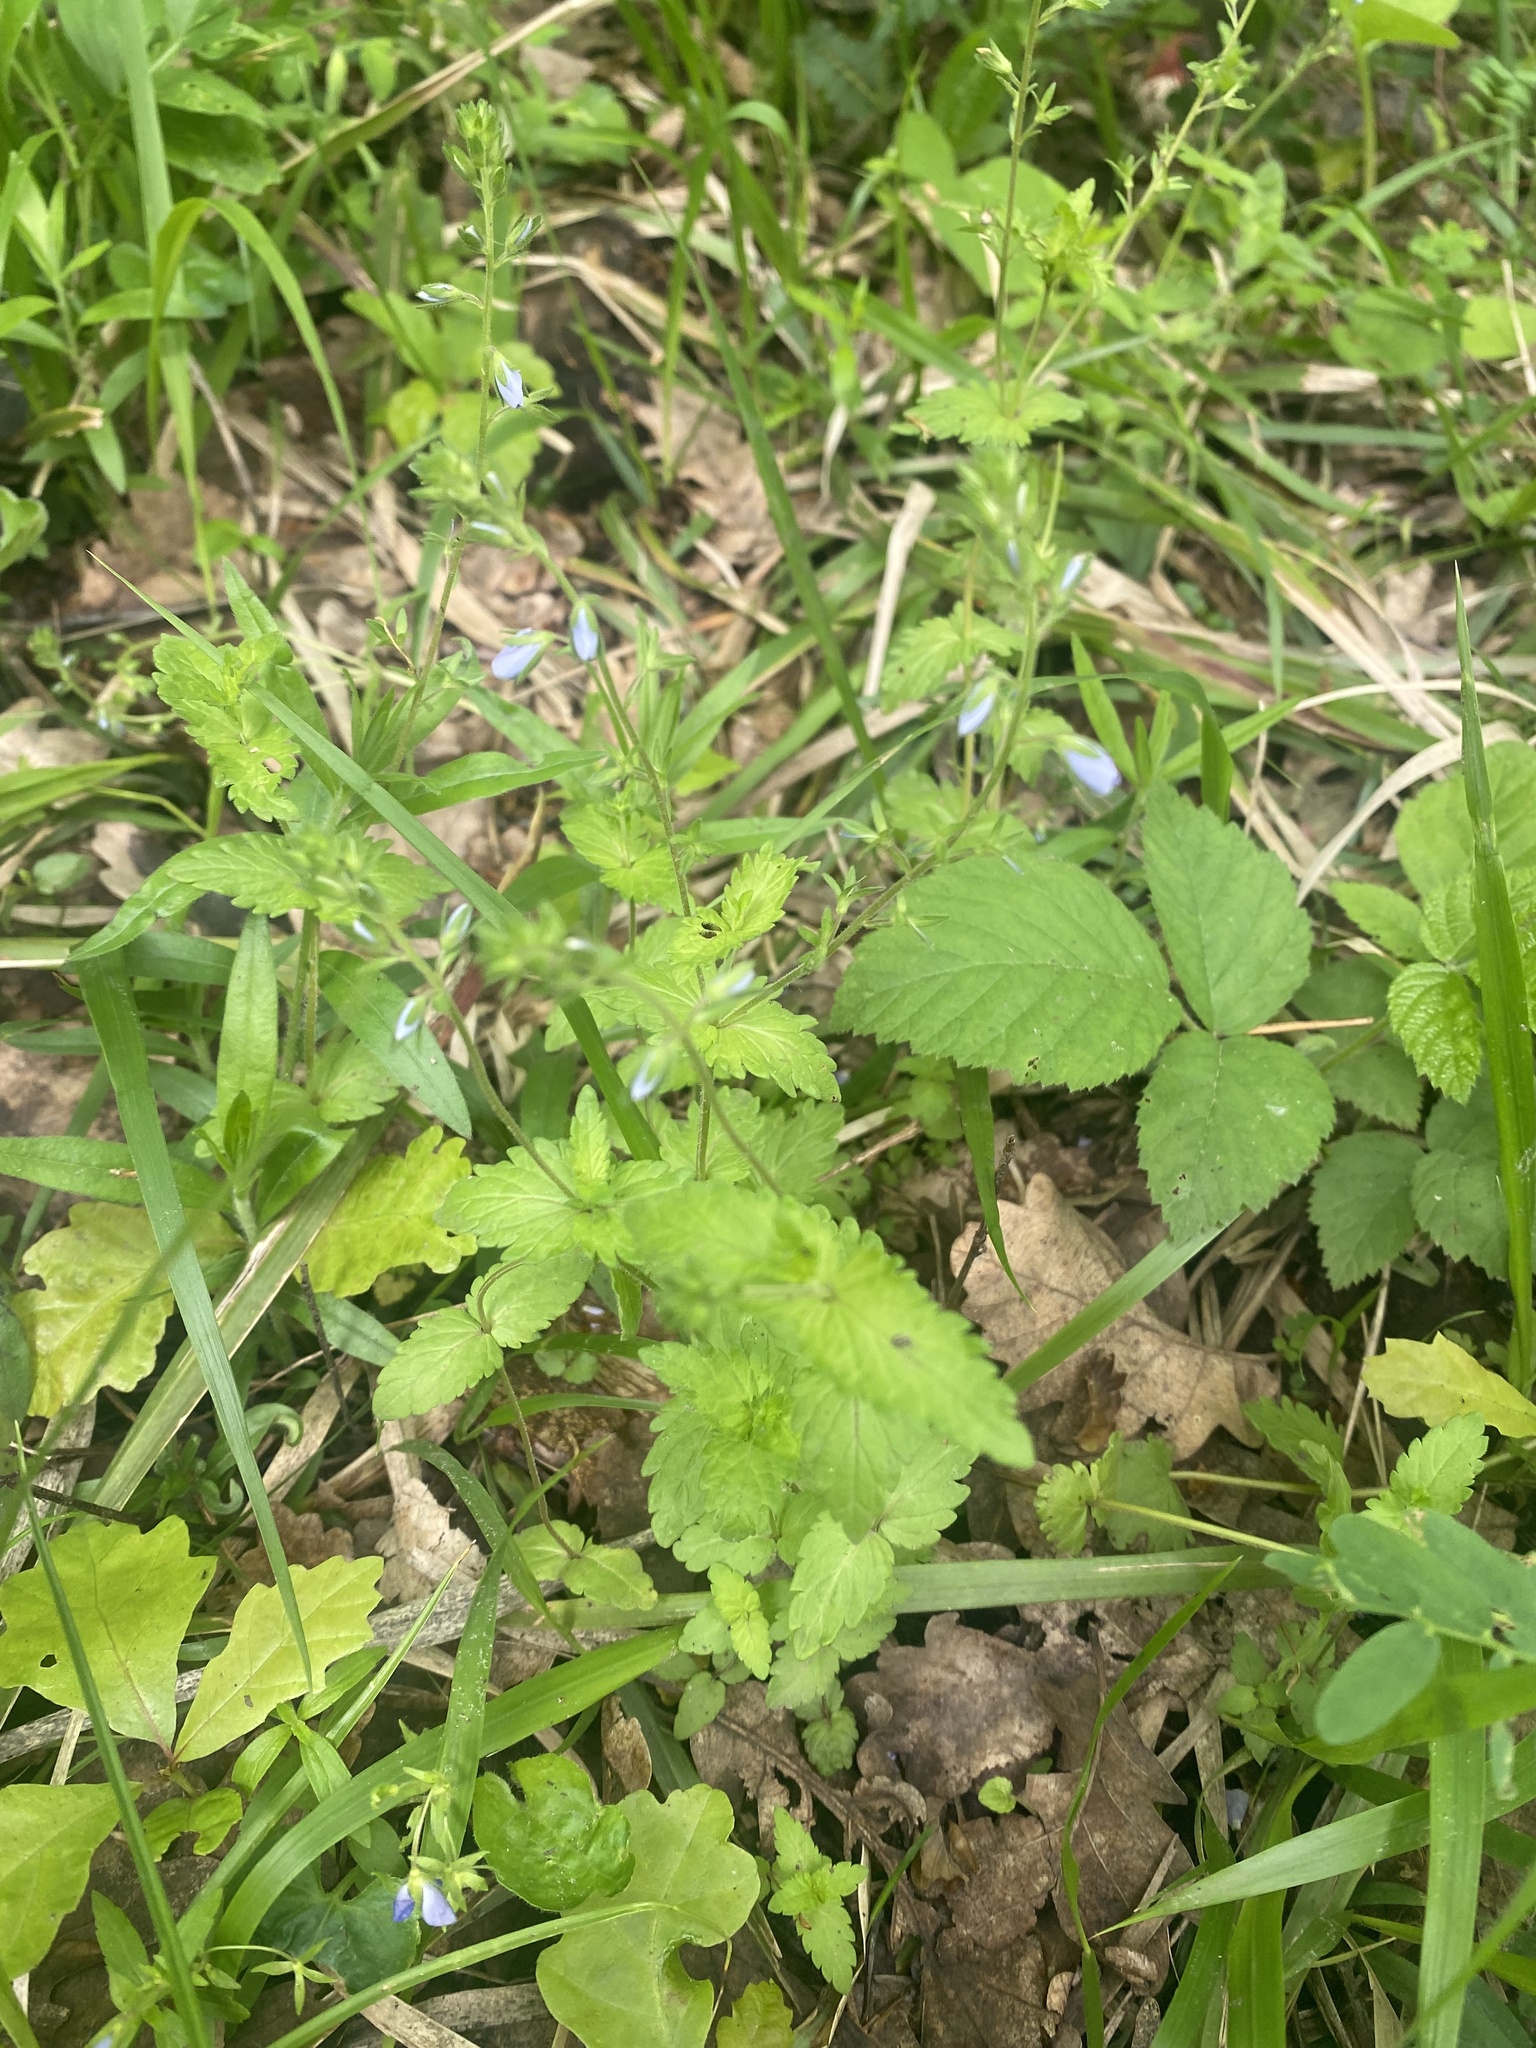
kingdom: Plantae
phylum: Tracheophyta
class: Magnoliopsida
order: Lamiales
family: Plantaginaceae
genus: Veronica
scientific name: Veronica chamaedrys
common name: Germander speedwell
